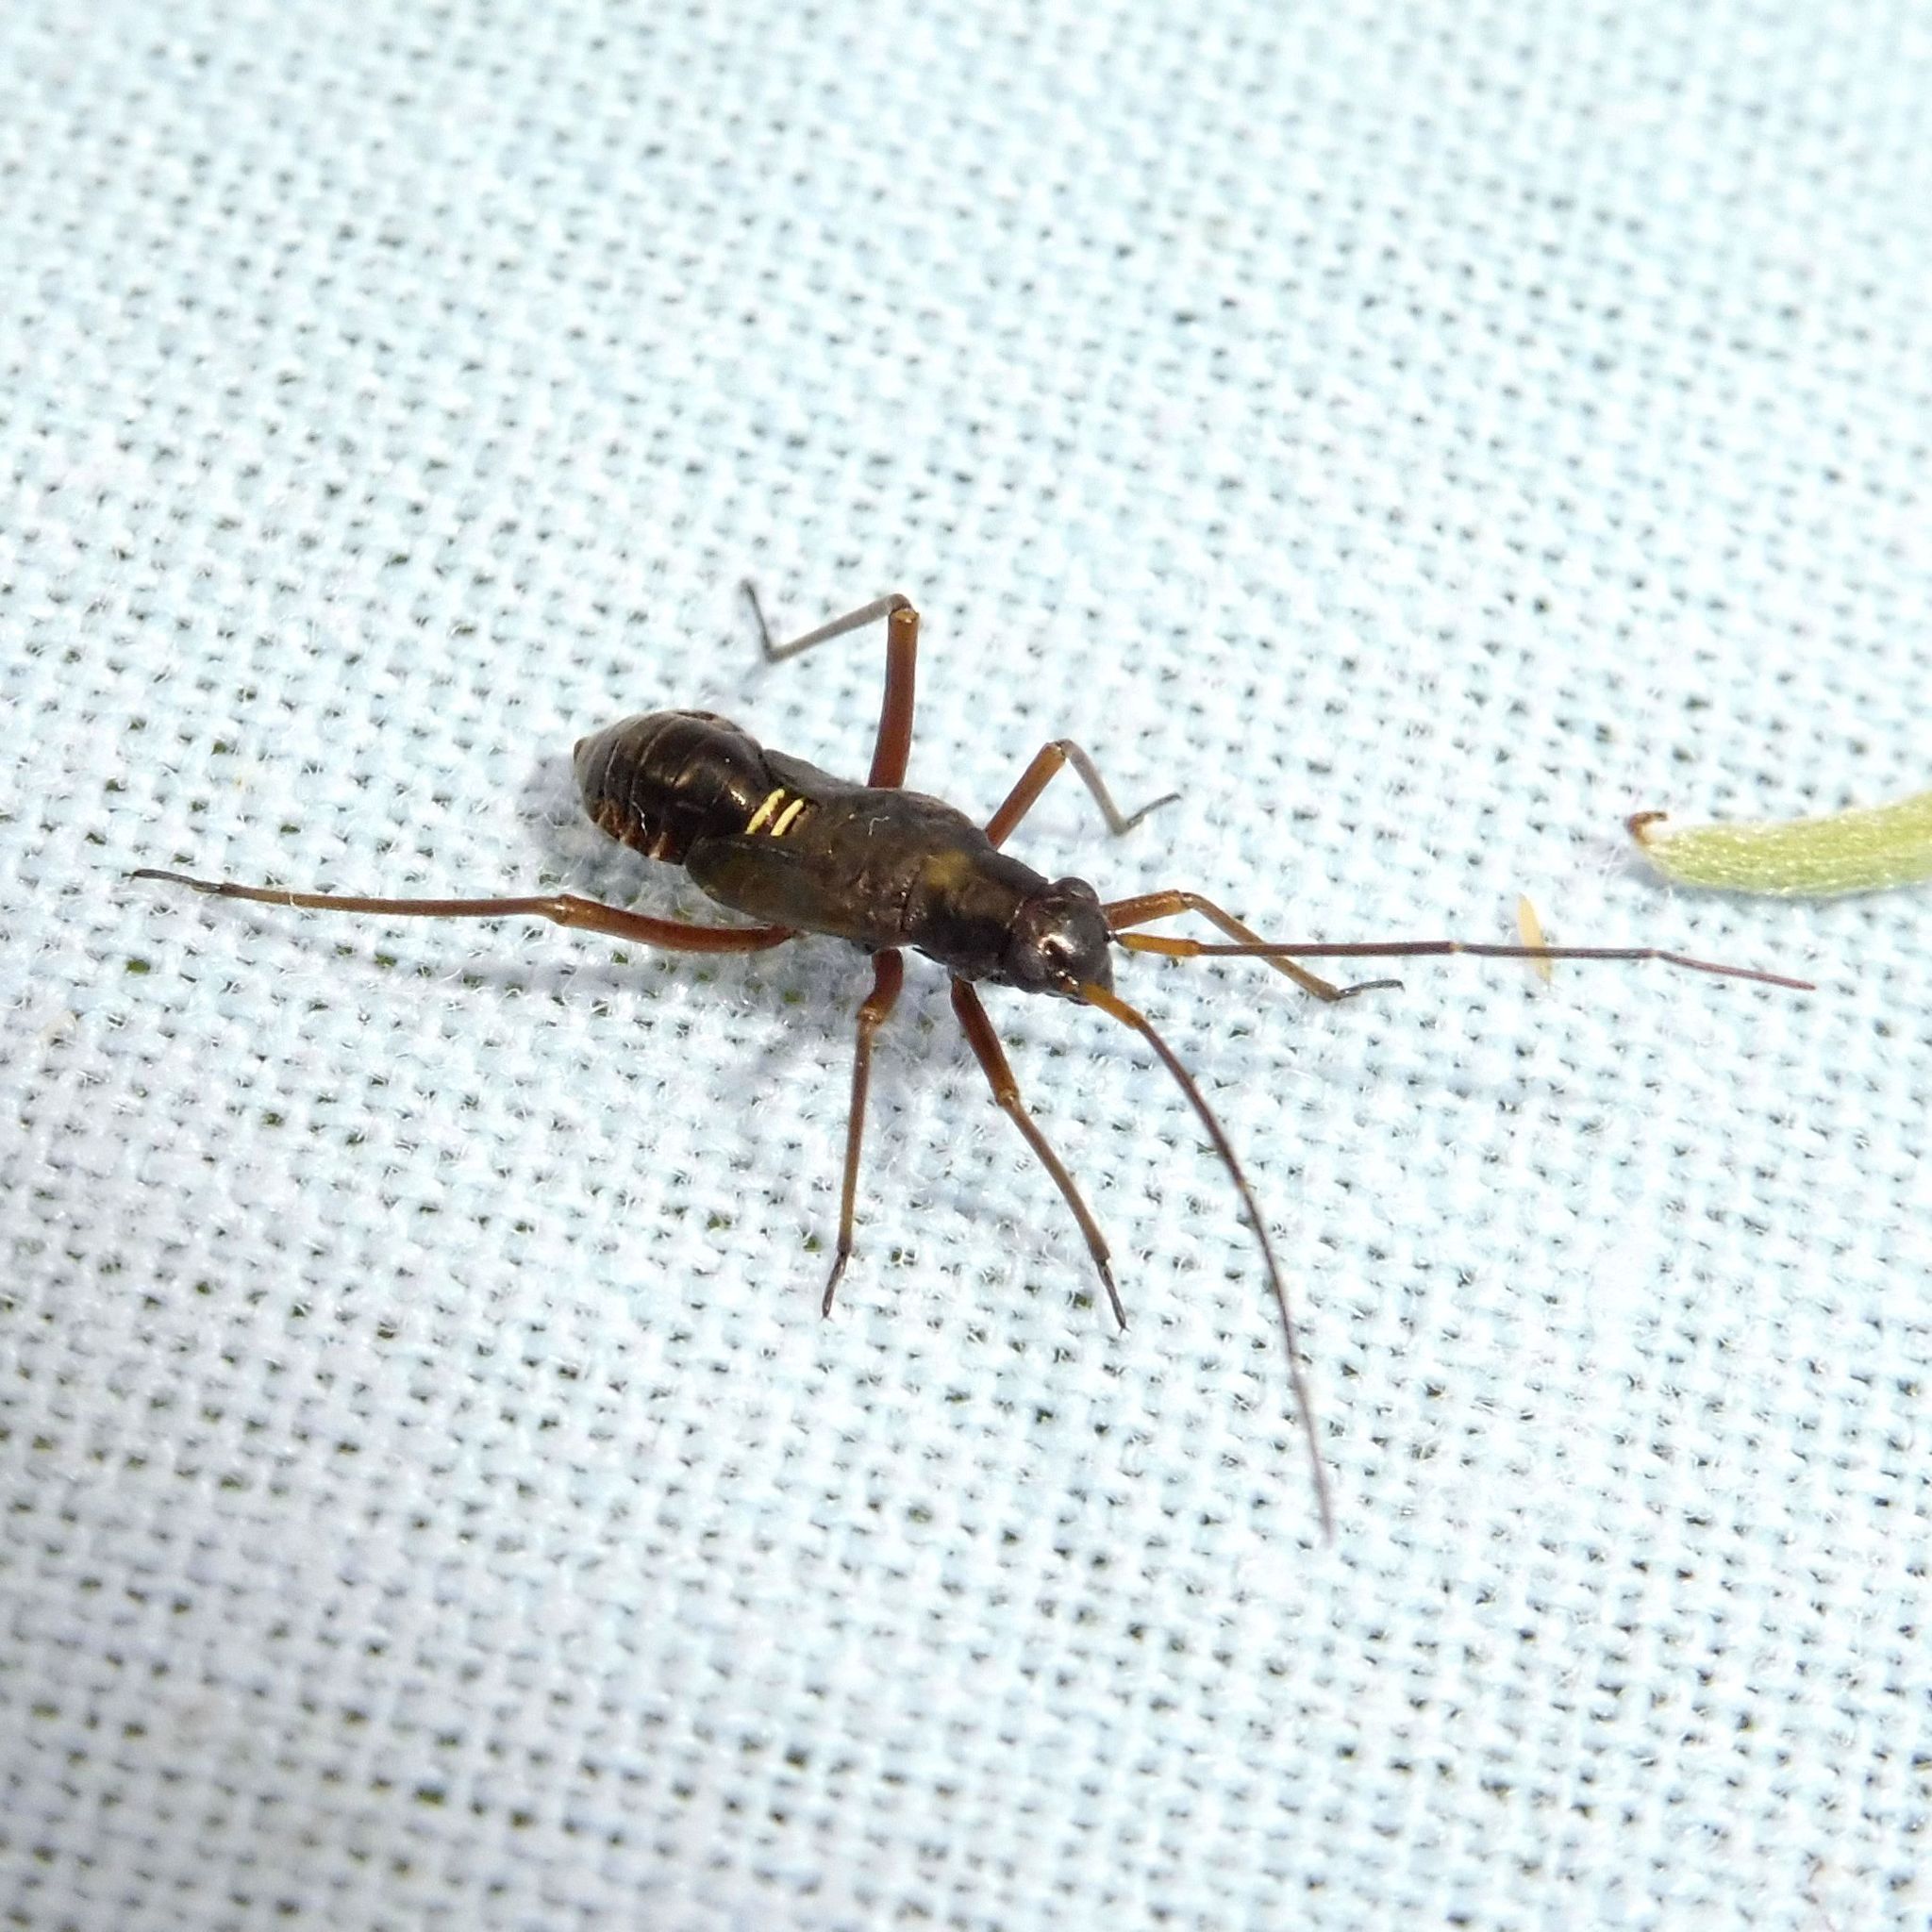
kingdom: Animalia
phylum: Arthropoda
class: Insecta
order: Hemiptera
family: Miridae
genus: Miris
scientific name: Miris striatus
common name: Fine streaked bugkin
